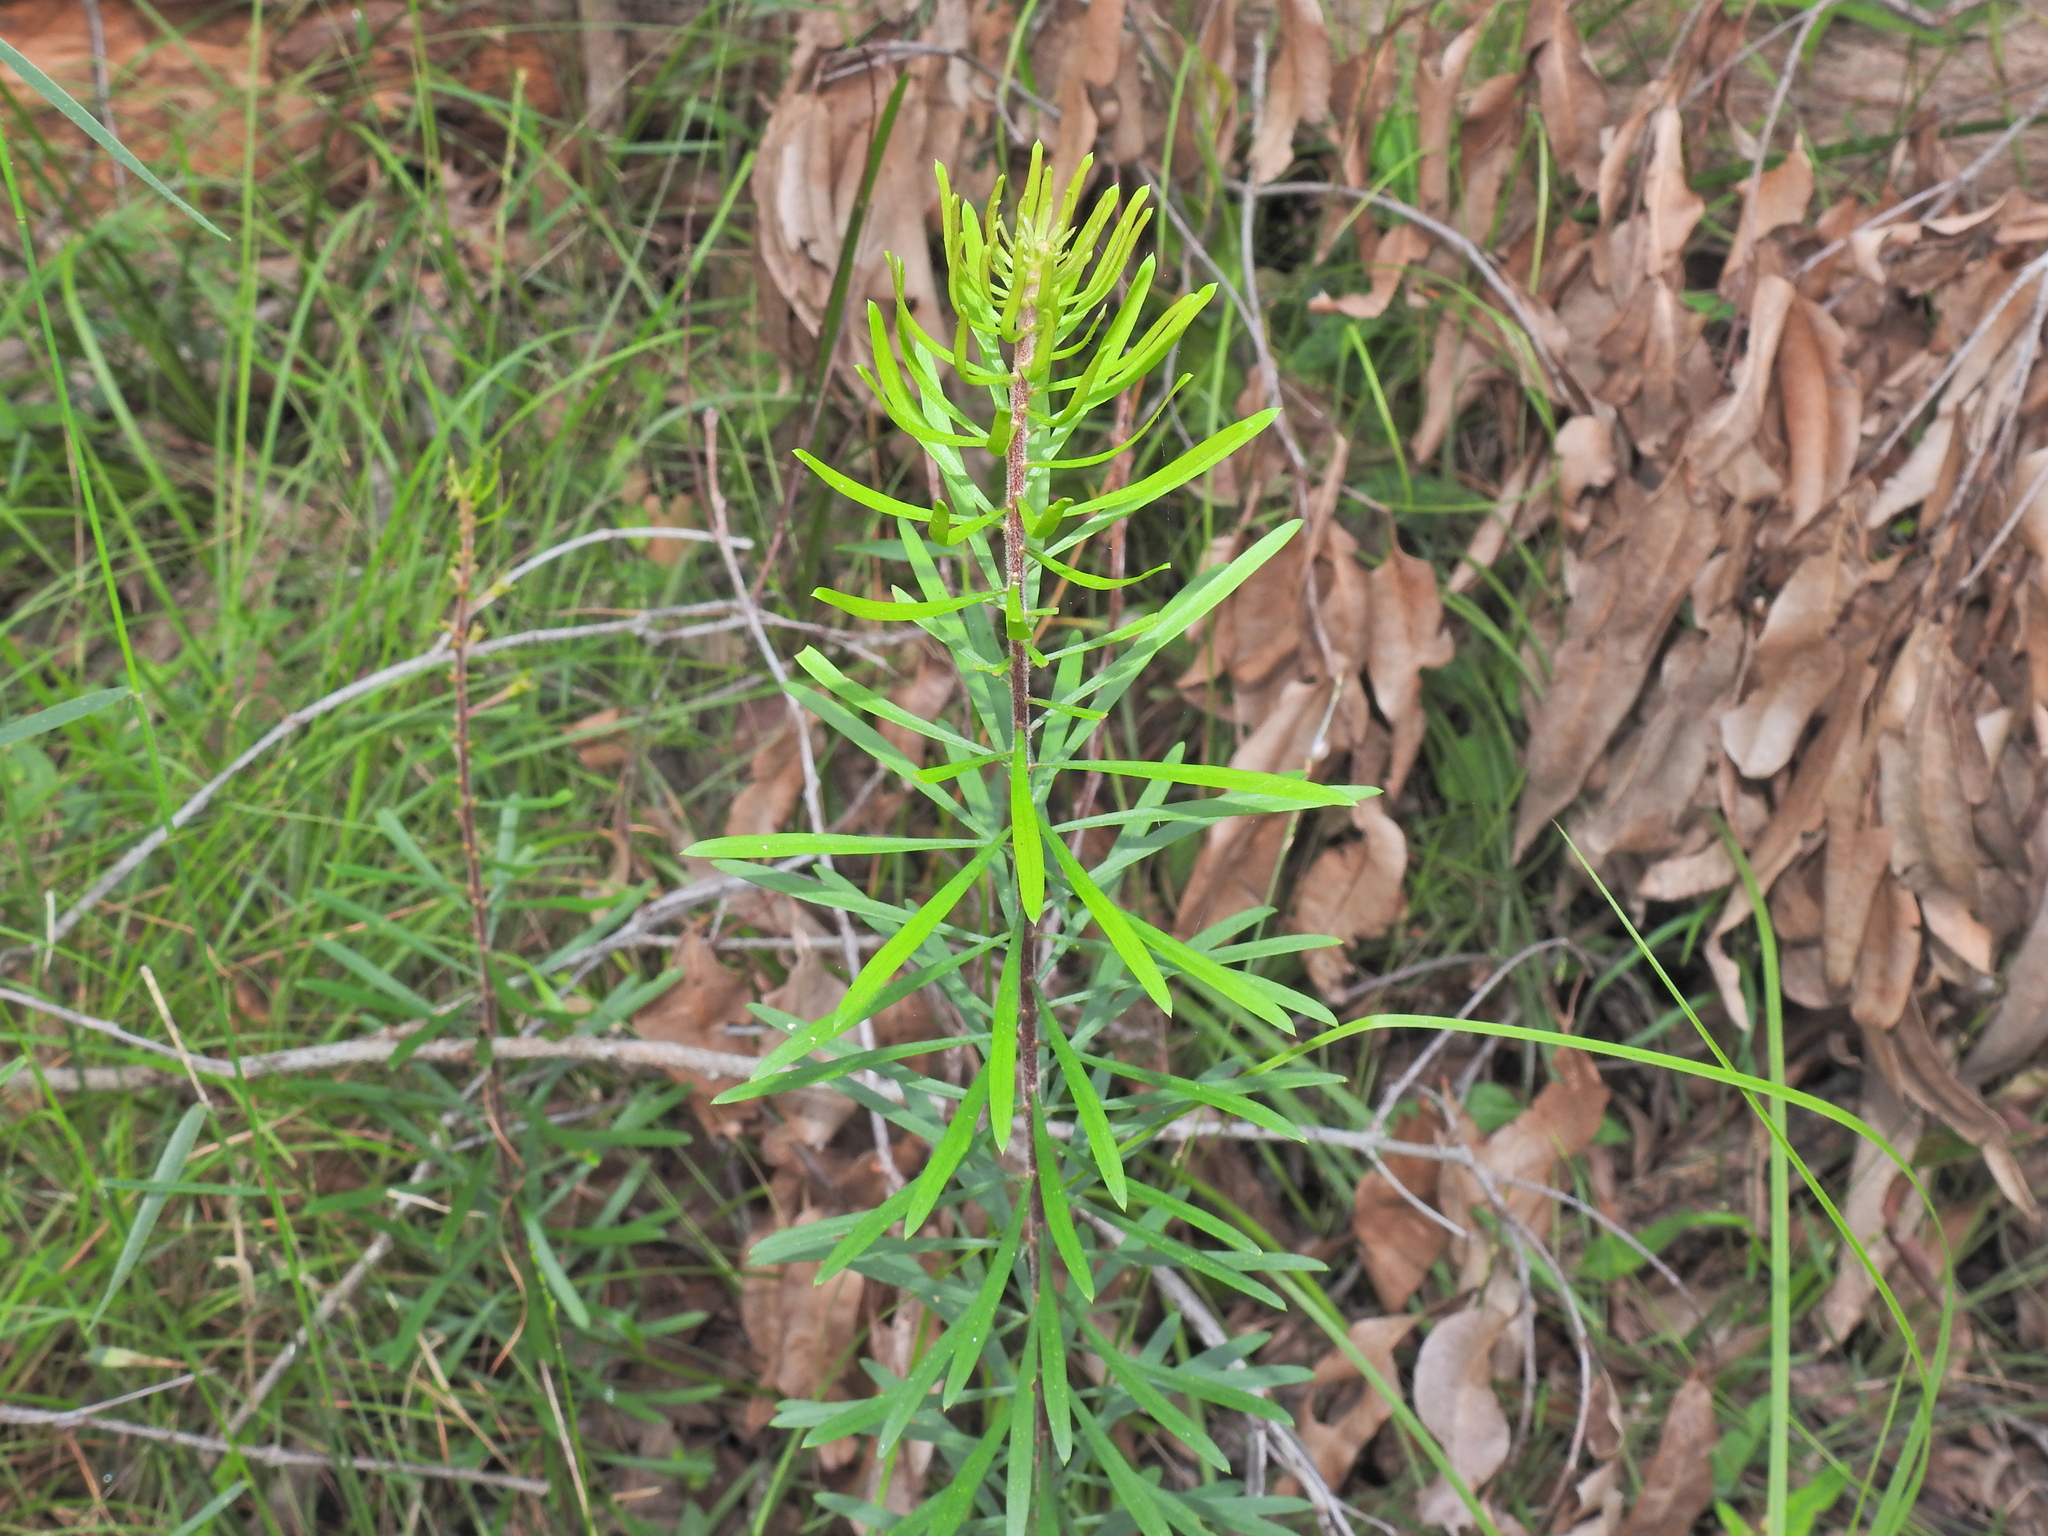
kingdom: Plantae
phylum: Tracheophyta
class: Magnoliopsida
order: Proteales
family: Proteaceae
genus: Persoonia
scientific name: Persoonia virgata
